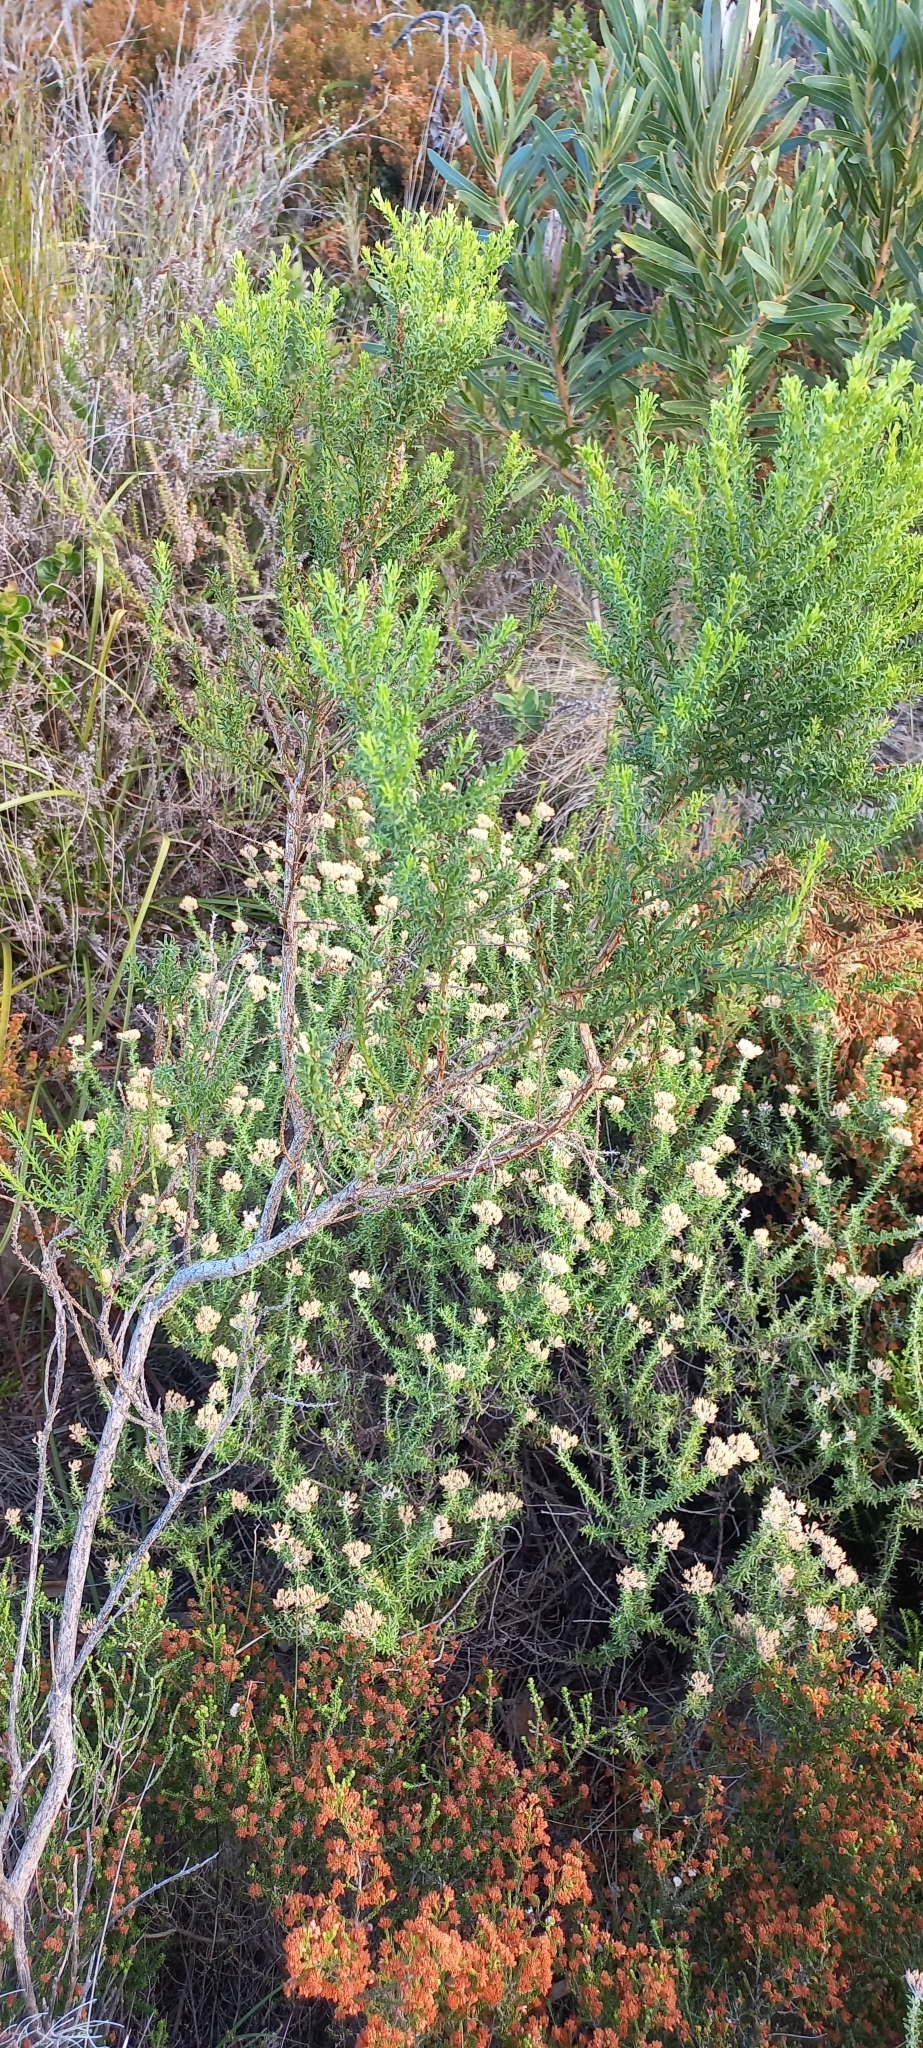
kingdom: Plantae
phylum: Tracheophyta
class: Magnoliopsida
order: Fabales
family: Fabaceae
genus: Psoralea
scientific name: Psoralea aculeata
